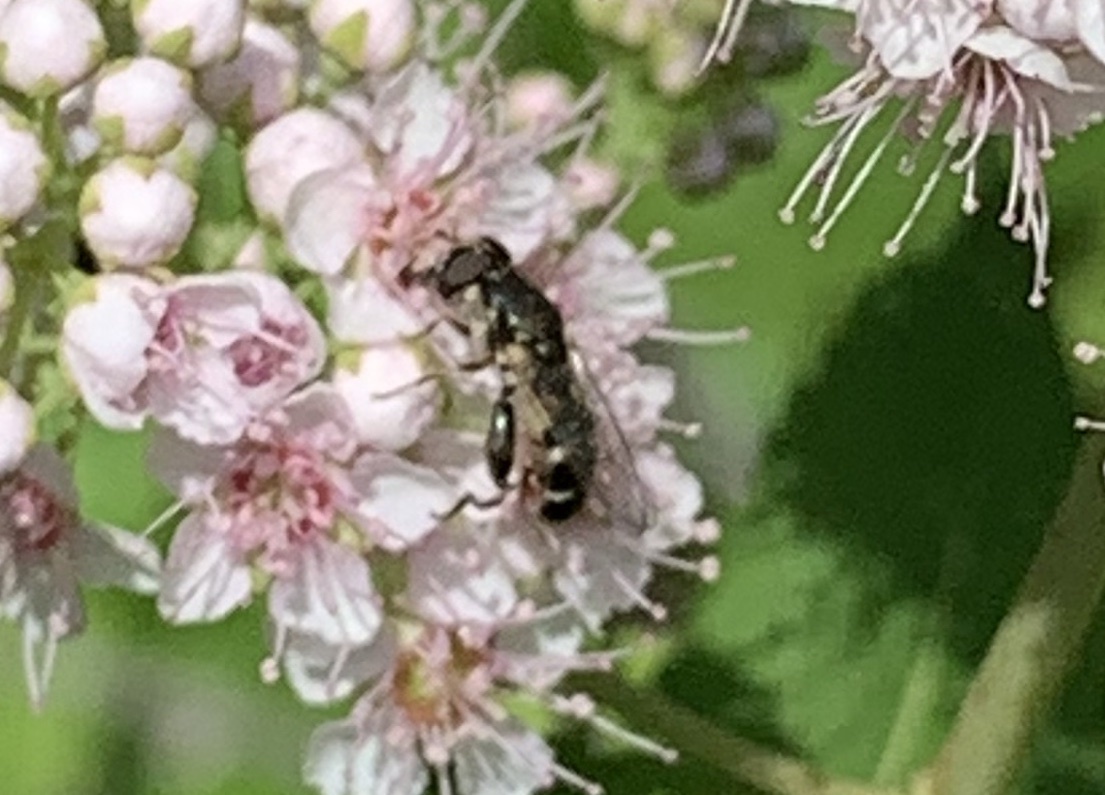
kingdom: Animalia
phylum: Arthropoda
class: Insecta
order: Diptera
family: Syrphidae
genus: Syritta
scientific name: Syritta pipiens
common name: Hover fly
